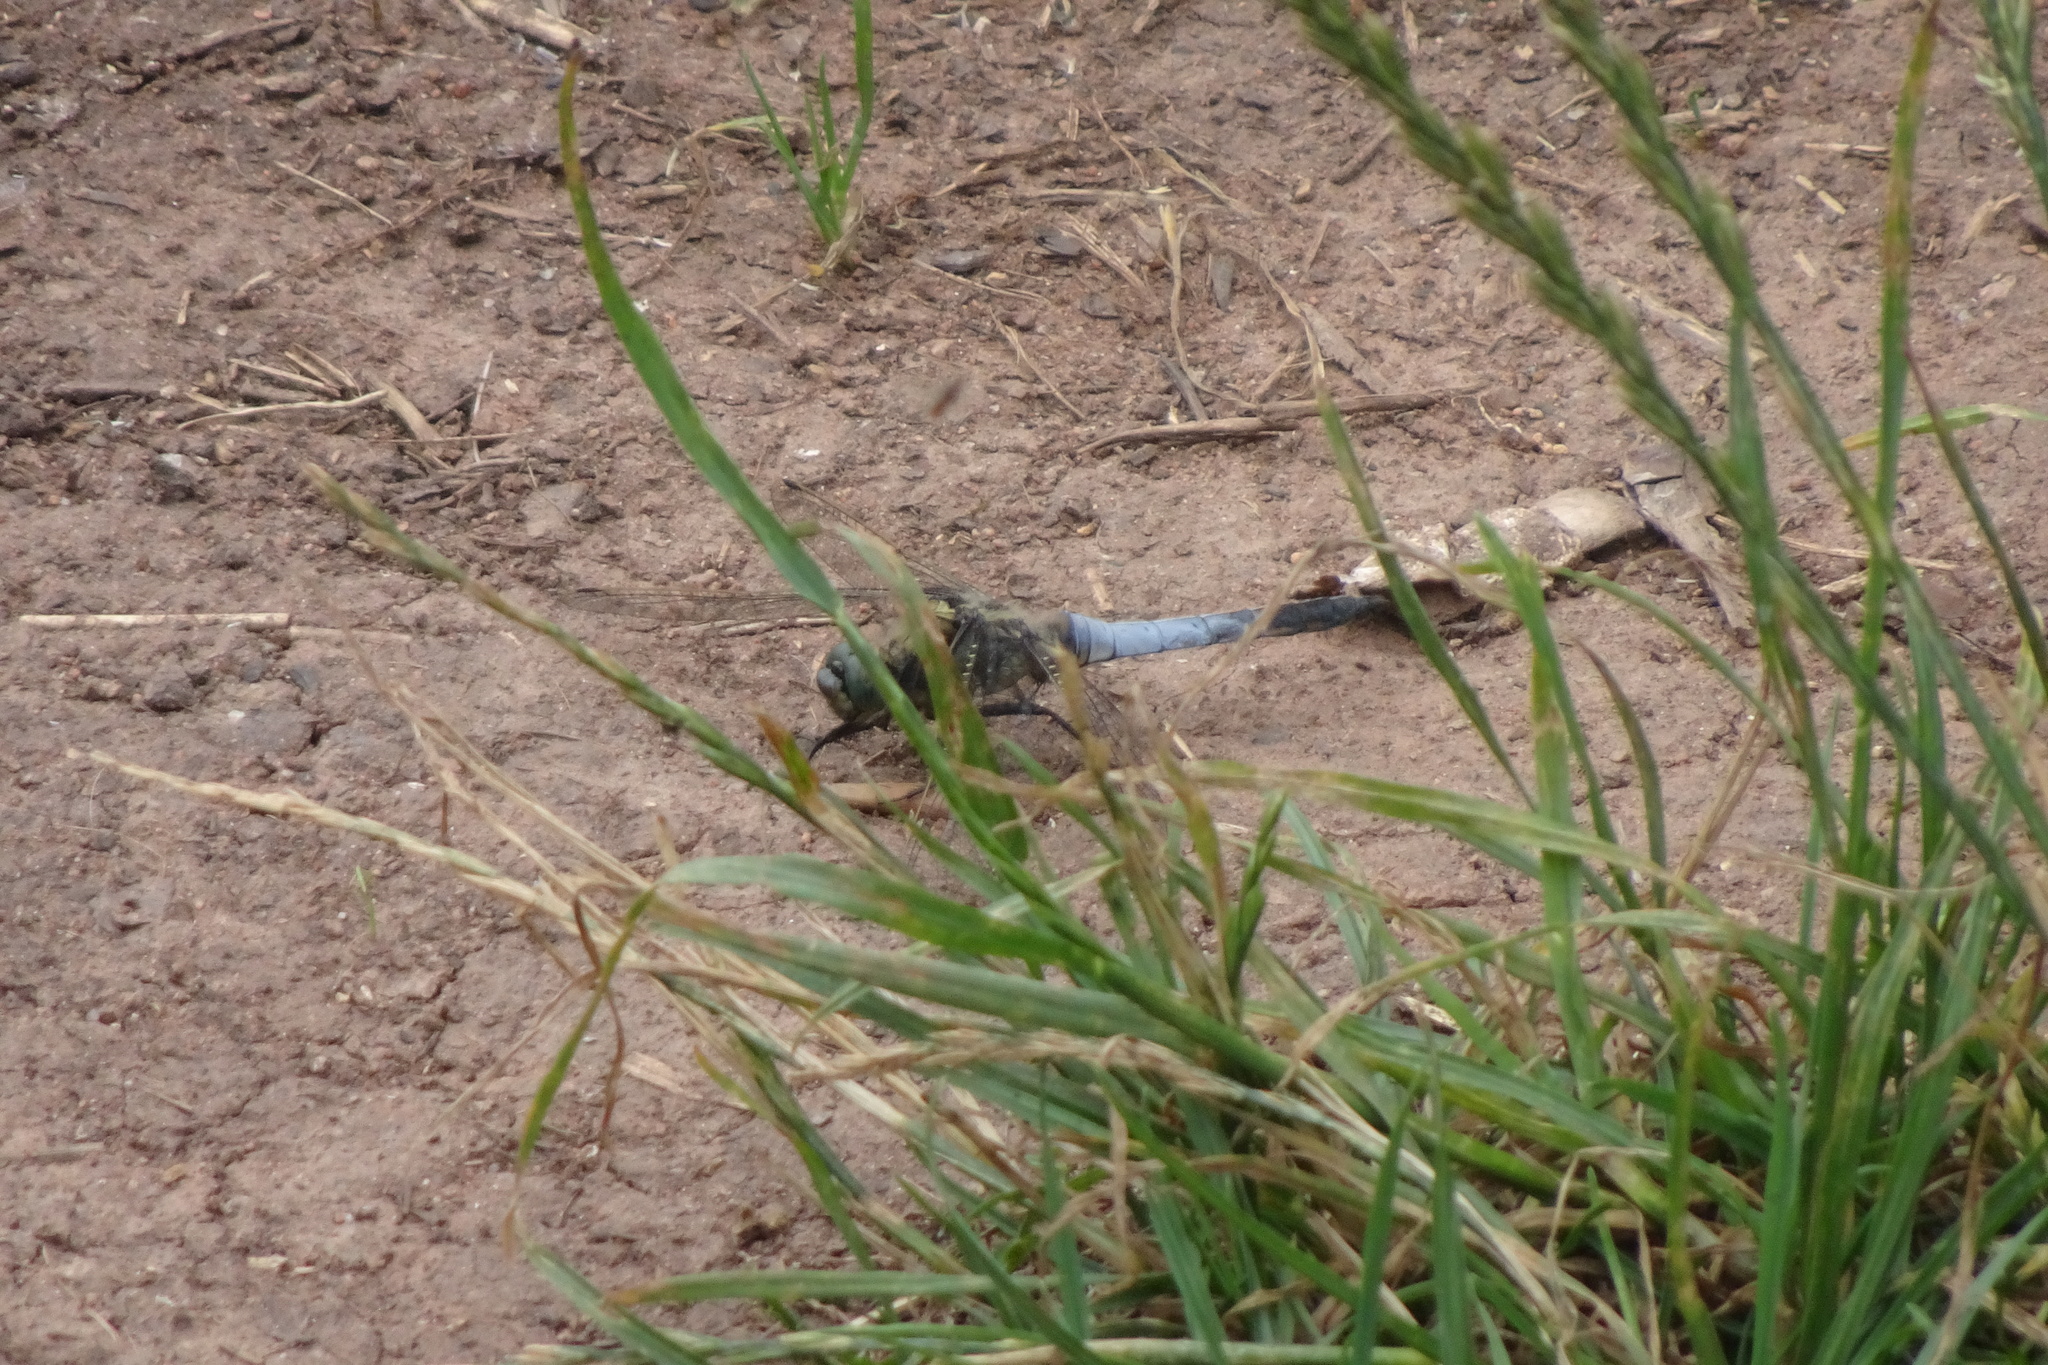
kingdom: Animalia
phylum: Arthropoda
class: Insecta
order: Odonata
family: Libellulidae
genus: Orthetrum
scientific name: Orthetrum cancellatum
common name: Black-tailed skimmer
